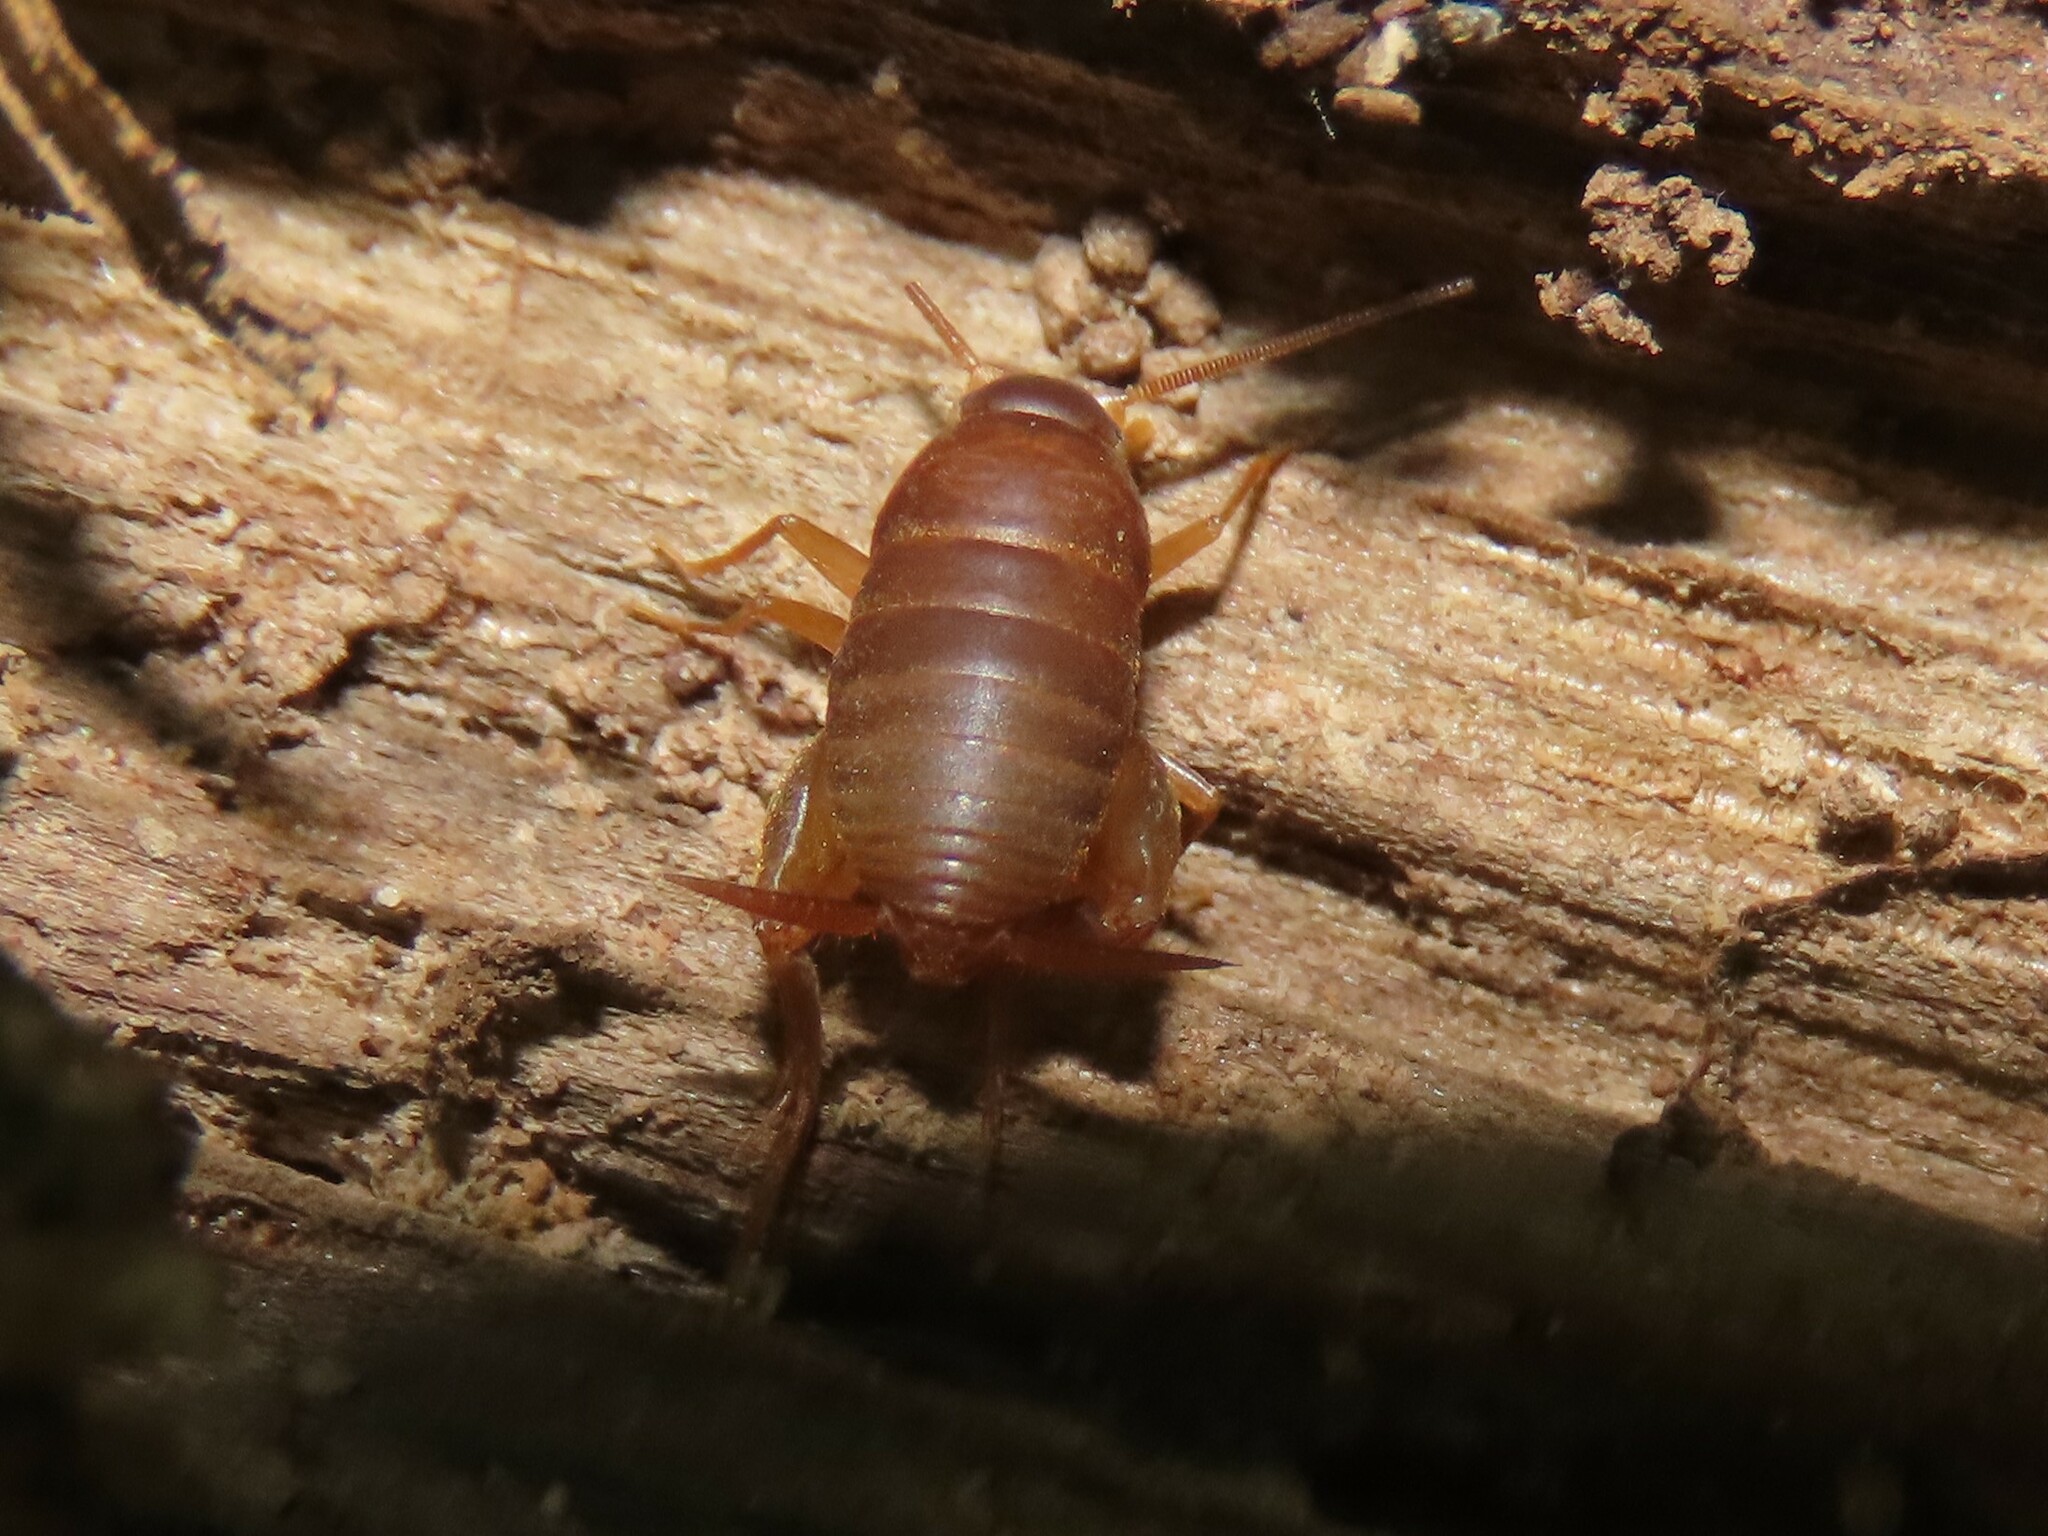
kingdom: Animalia
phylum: Arthropoda
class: Insecta
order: Orthoptera
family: Myrmecophilidae
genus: Myrmecophilus
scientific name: Myrmecophilus pergandei
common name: Eastern ant cricket
